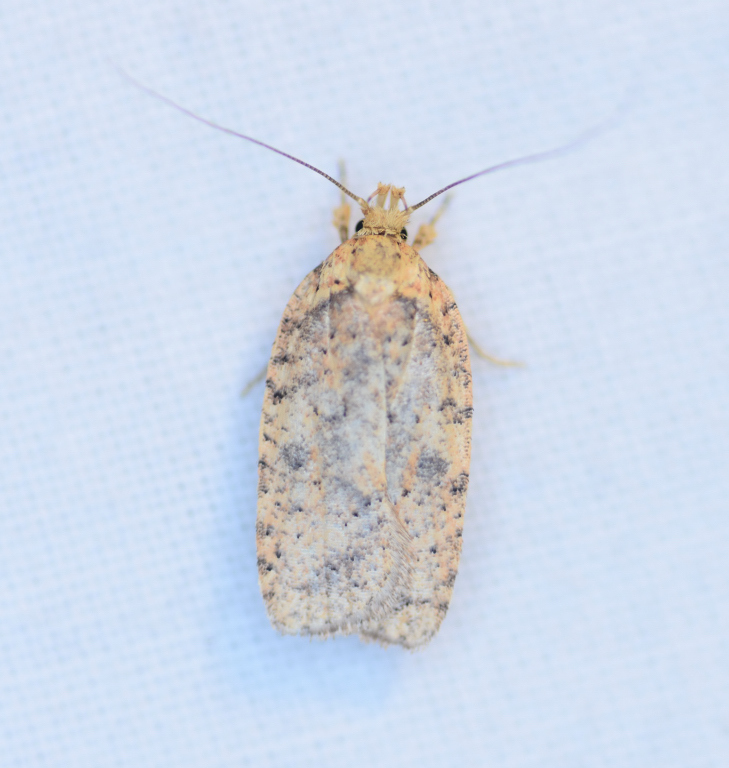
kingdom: Animalia
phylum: Arthropoda
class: Insecta
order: Lepidoptera
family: Depressariidae
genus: Agonopterix
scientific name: Agonopterix thelmae
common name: Thelma's agonopterix moth
